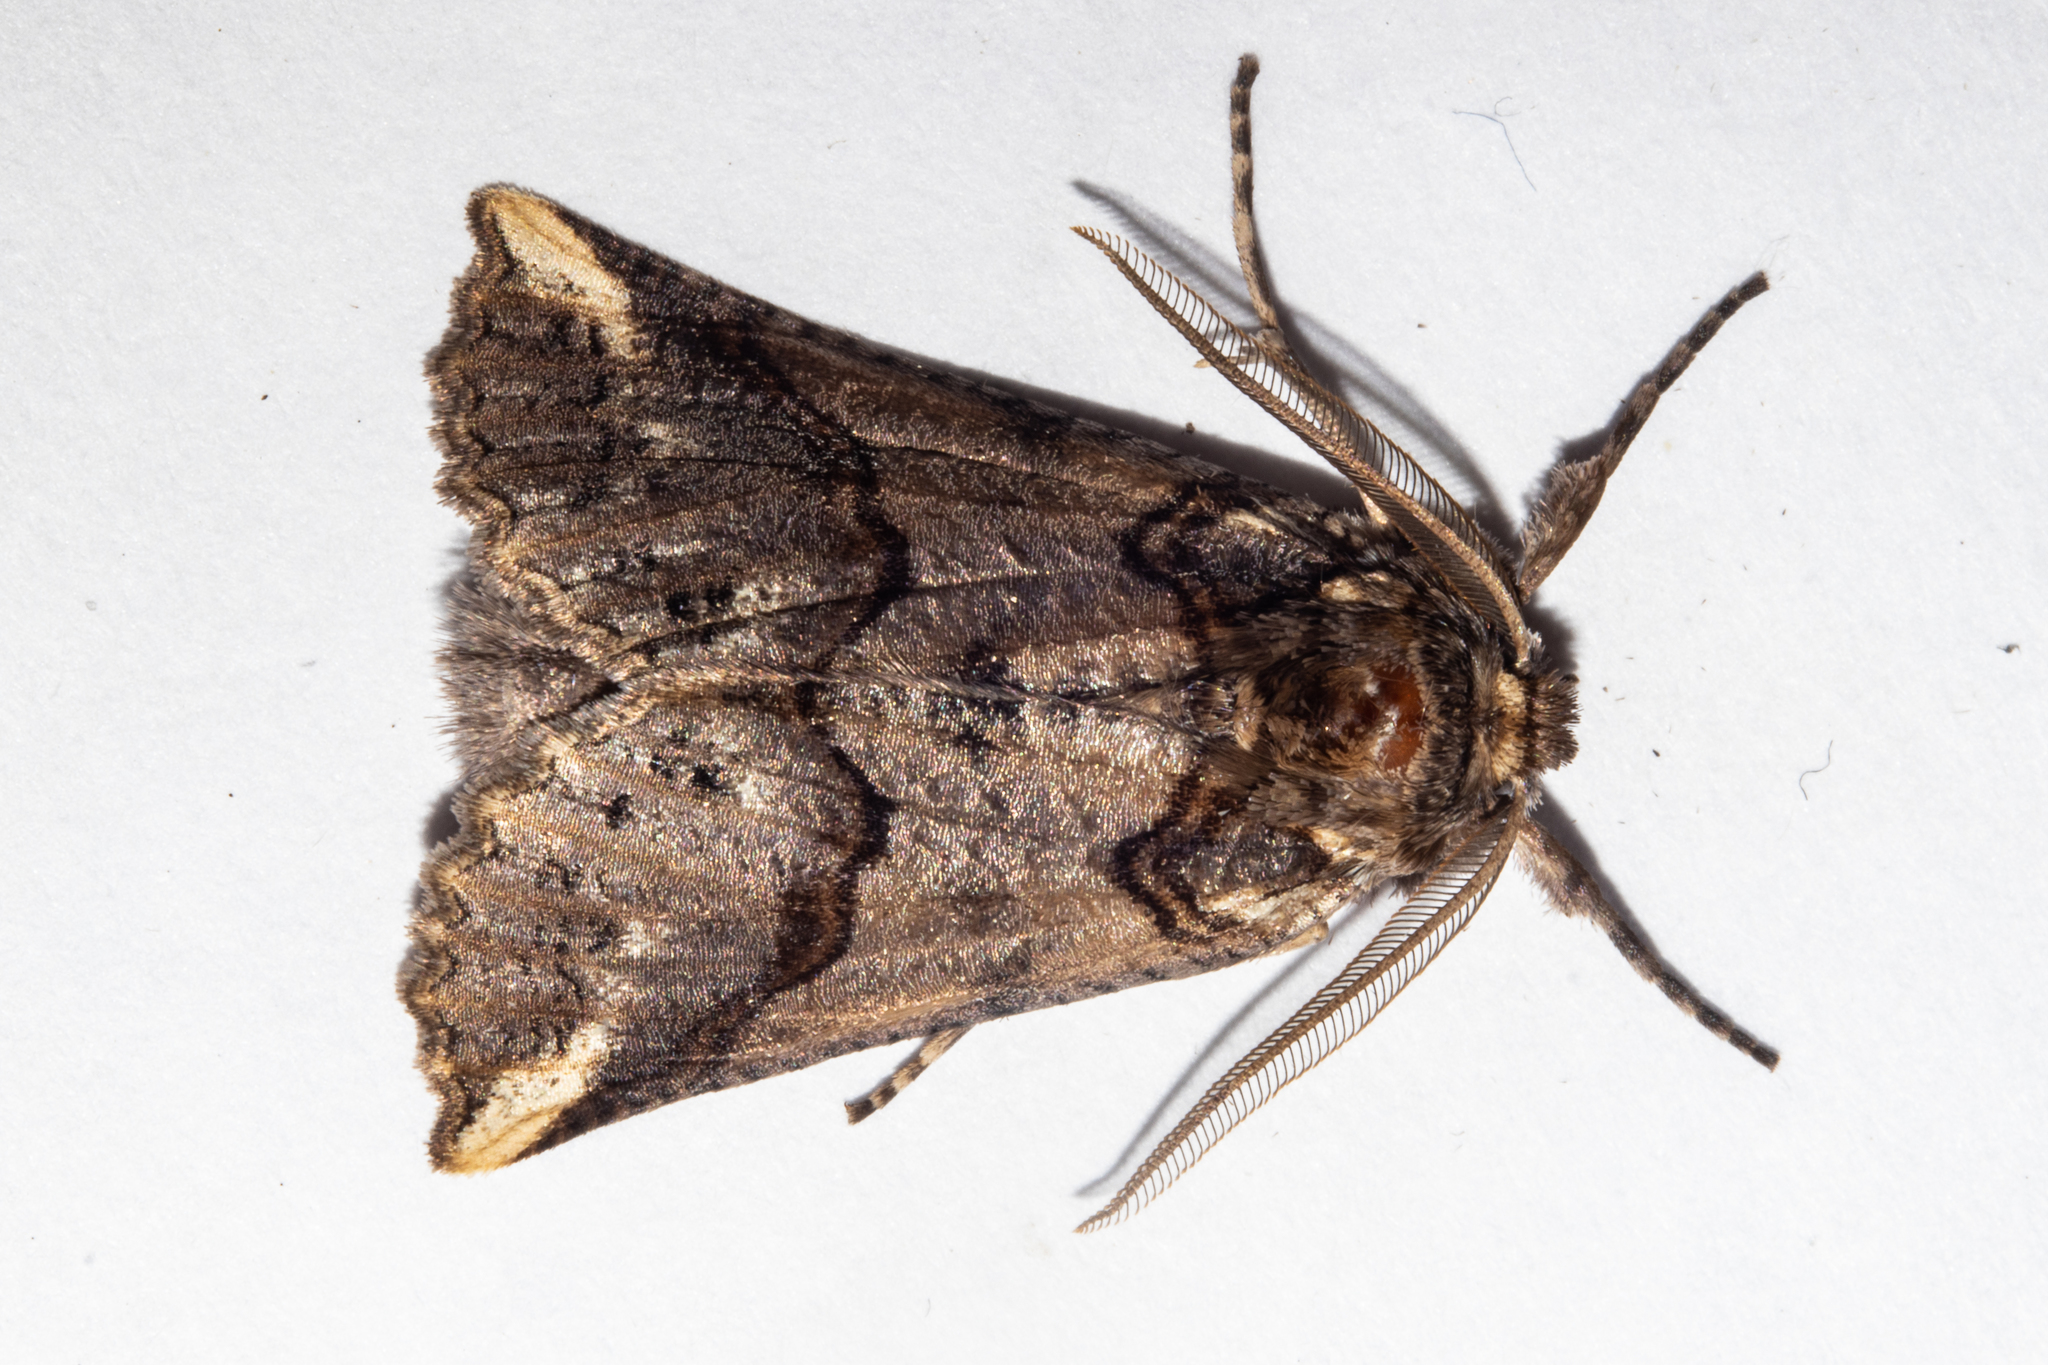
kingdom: Animalia
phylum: Arthropoda
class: Insecta
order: Lepidoptera
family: Geometridae
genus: Declana
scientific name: Declana
